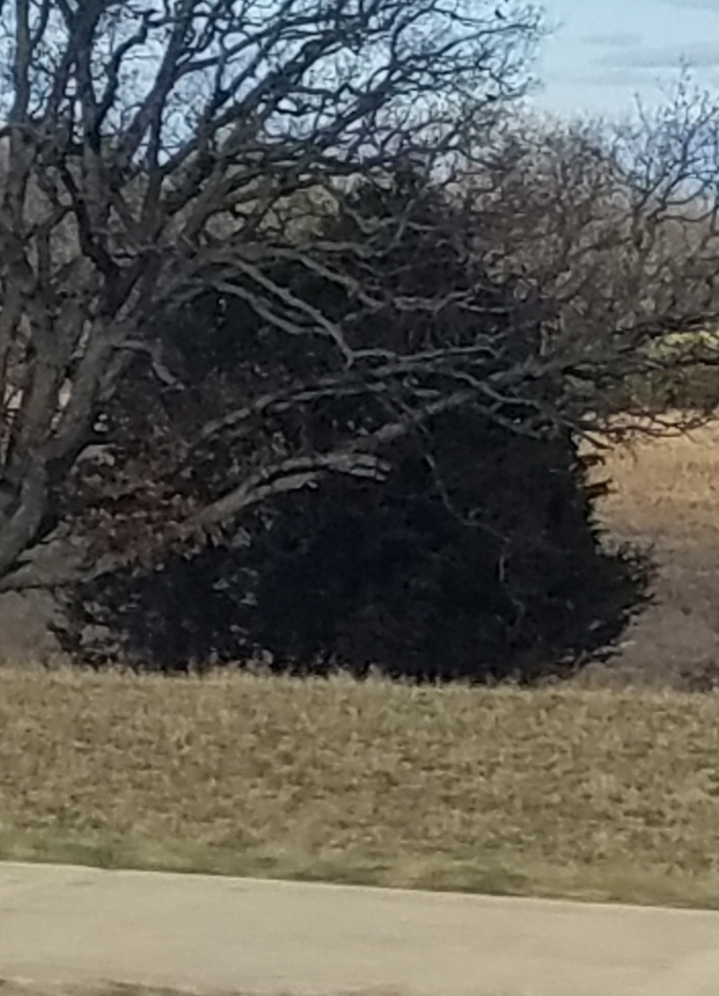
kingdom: Plantae
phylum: Tracheophyta
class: Pinopsida
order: Pinales
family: Cupressaceae
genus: Juniperus
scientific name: Juniperus virginiana
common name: Red juniper
